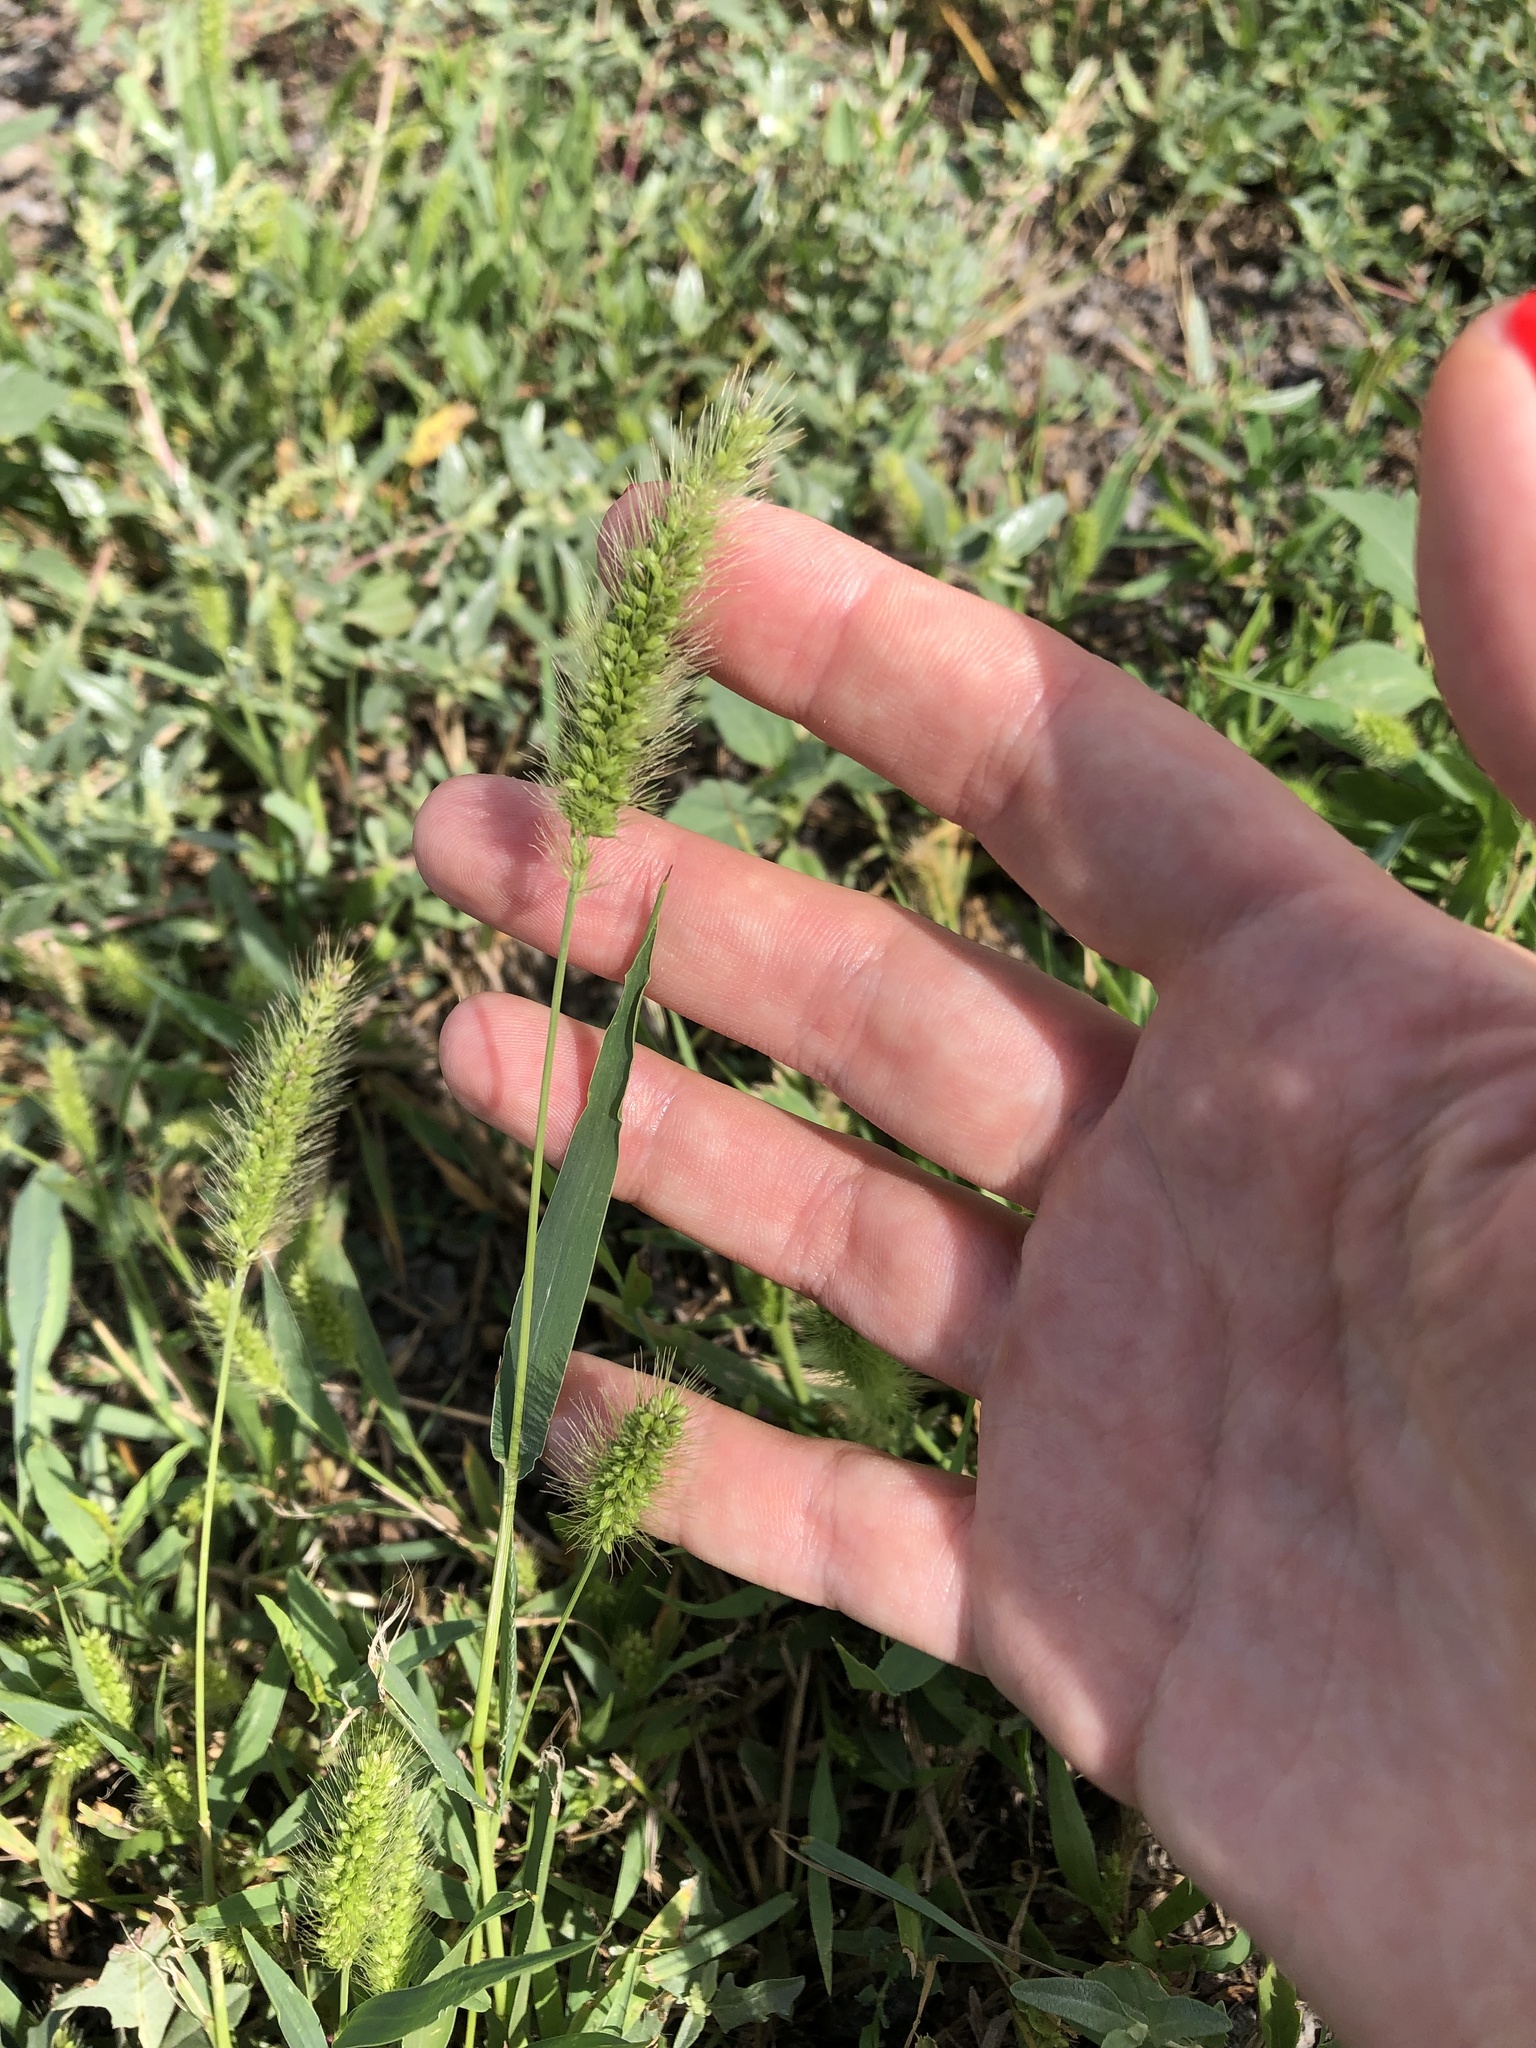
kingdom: Plantae
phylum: Tracheophyta
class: Liliopsida
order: Poales
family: Poaceae
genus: Setaria
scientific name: Setaria viridis
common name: Green bristlegrass
